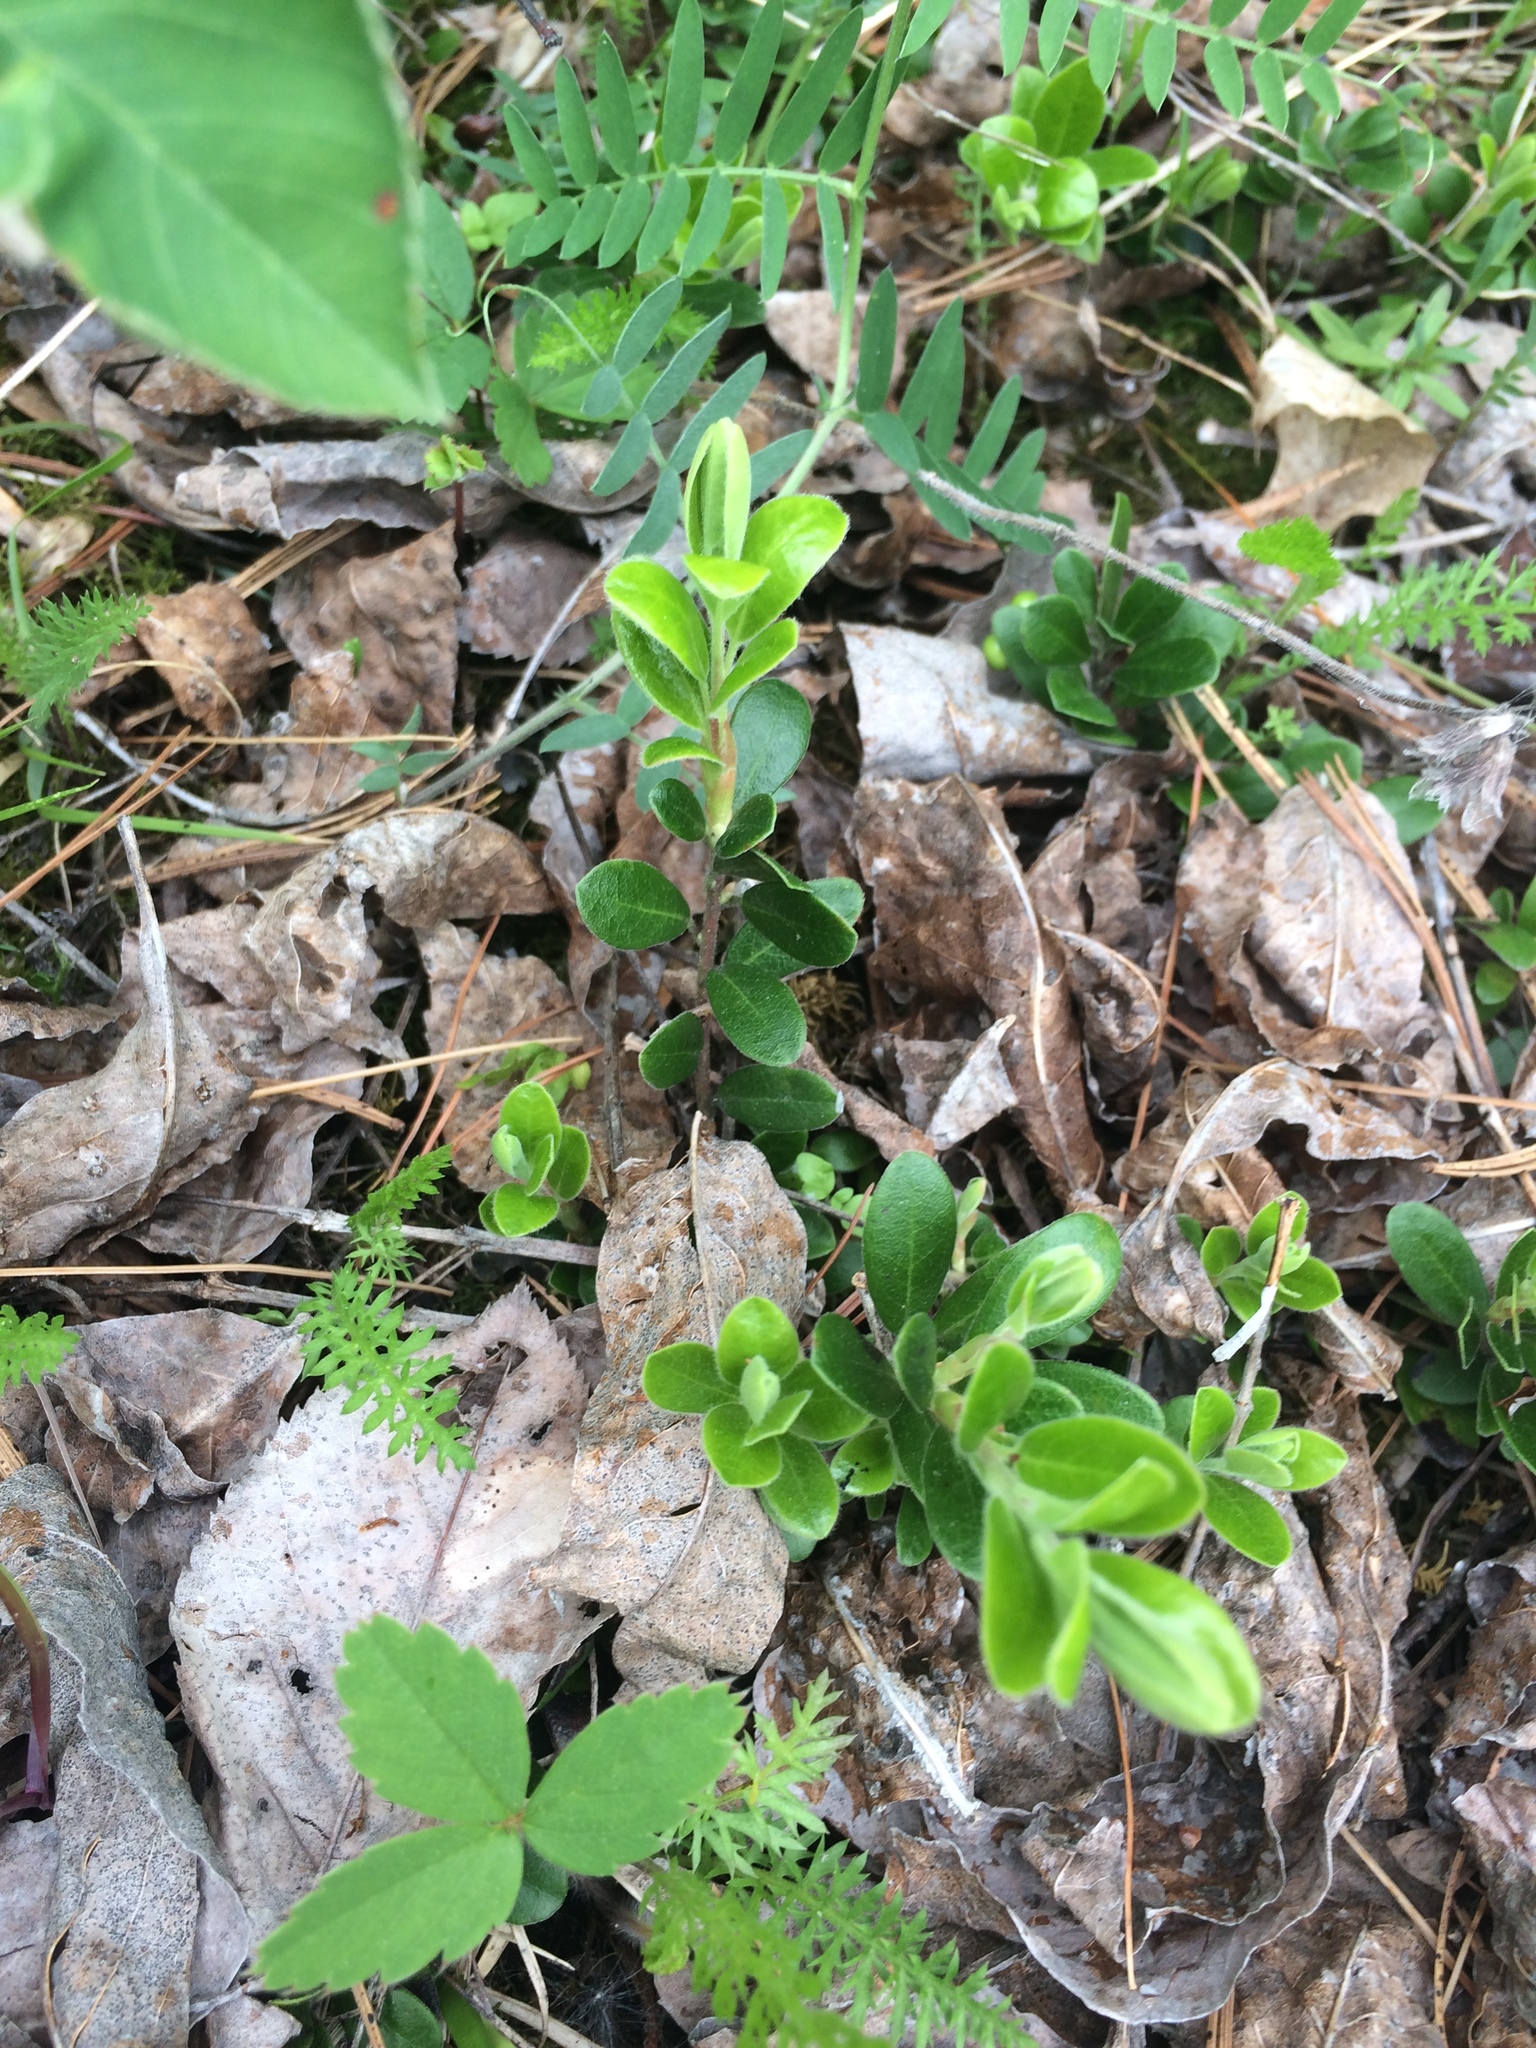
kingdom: Plantae
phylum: Tracheophyta
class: Magnoliopsida
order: Ericales
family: Ericaceae
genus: Arctostaphylos
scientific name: Arctostaphylos uva-ursi
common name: Bearberry
